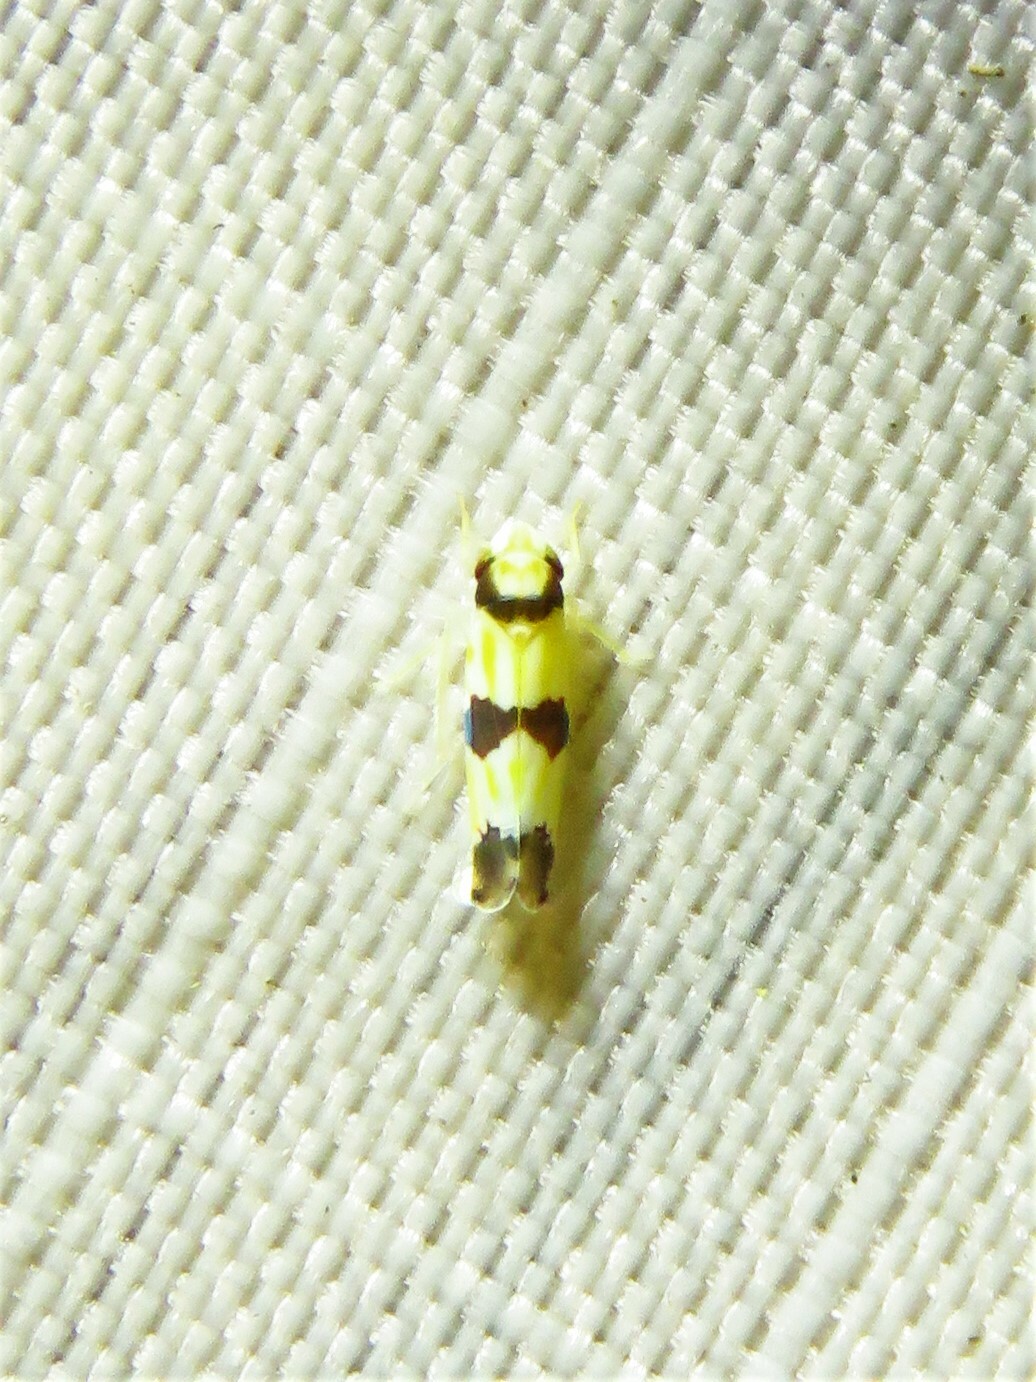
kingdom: Animalia
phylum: Arthropoda
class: Insecta
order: Hemiptera
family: Cicadellidae
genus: Erythroneura
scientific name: Erythroneura calycula
